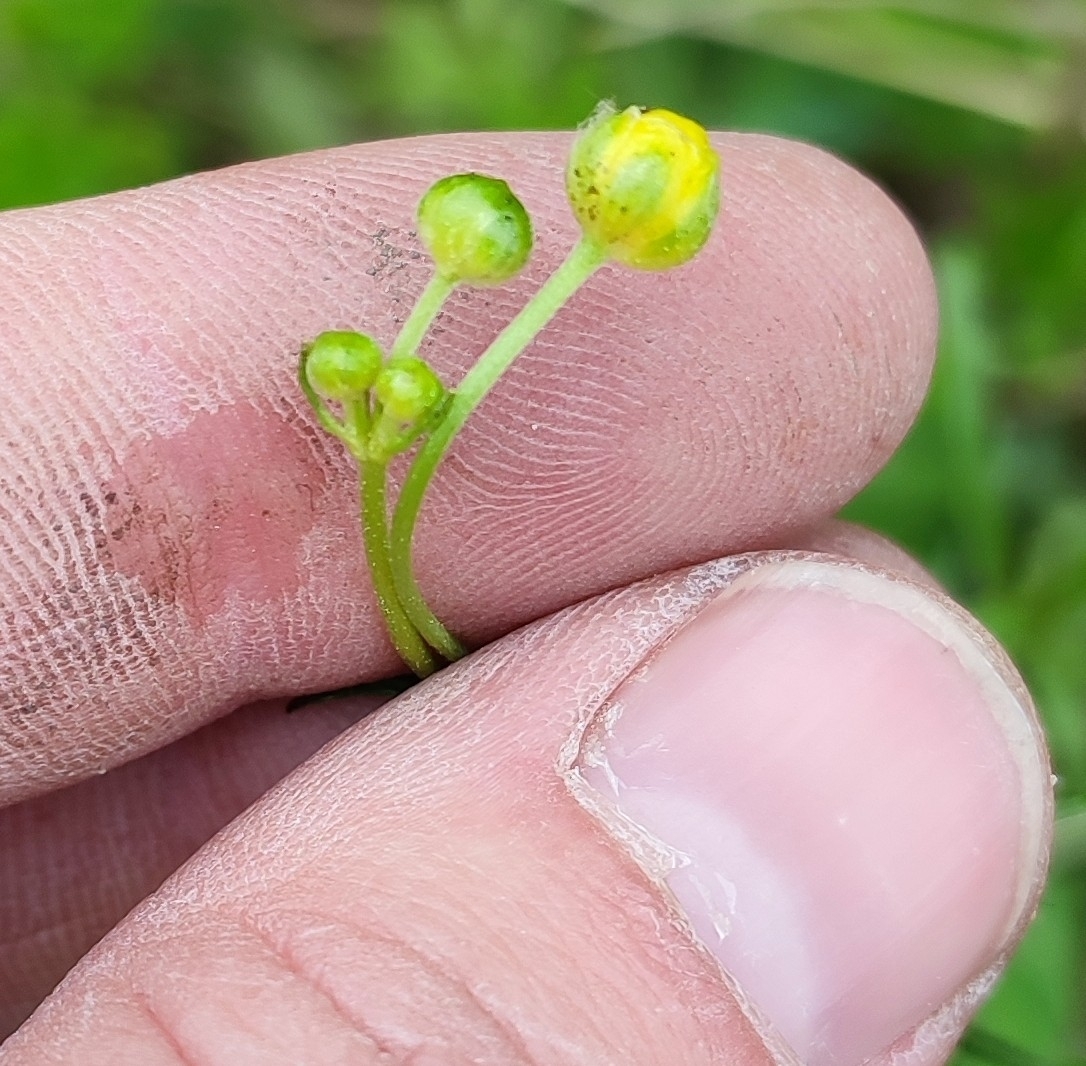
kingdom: Plantae
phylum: Tracheophyta
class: Magnoliopsida
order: Ranunculales
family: Ranunculaceae
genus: Ranunculus
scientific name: Ranunculus acris
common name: Meadow buttercup
